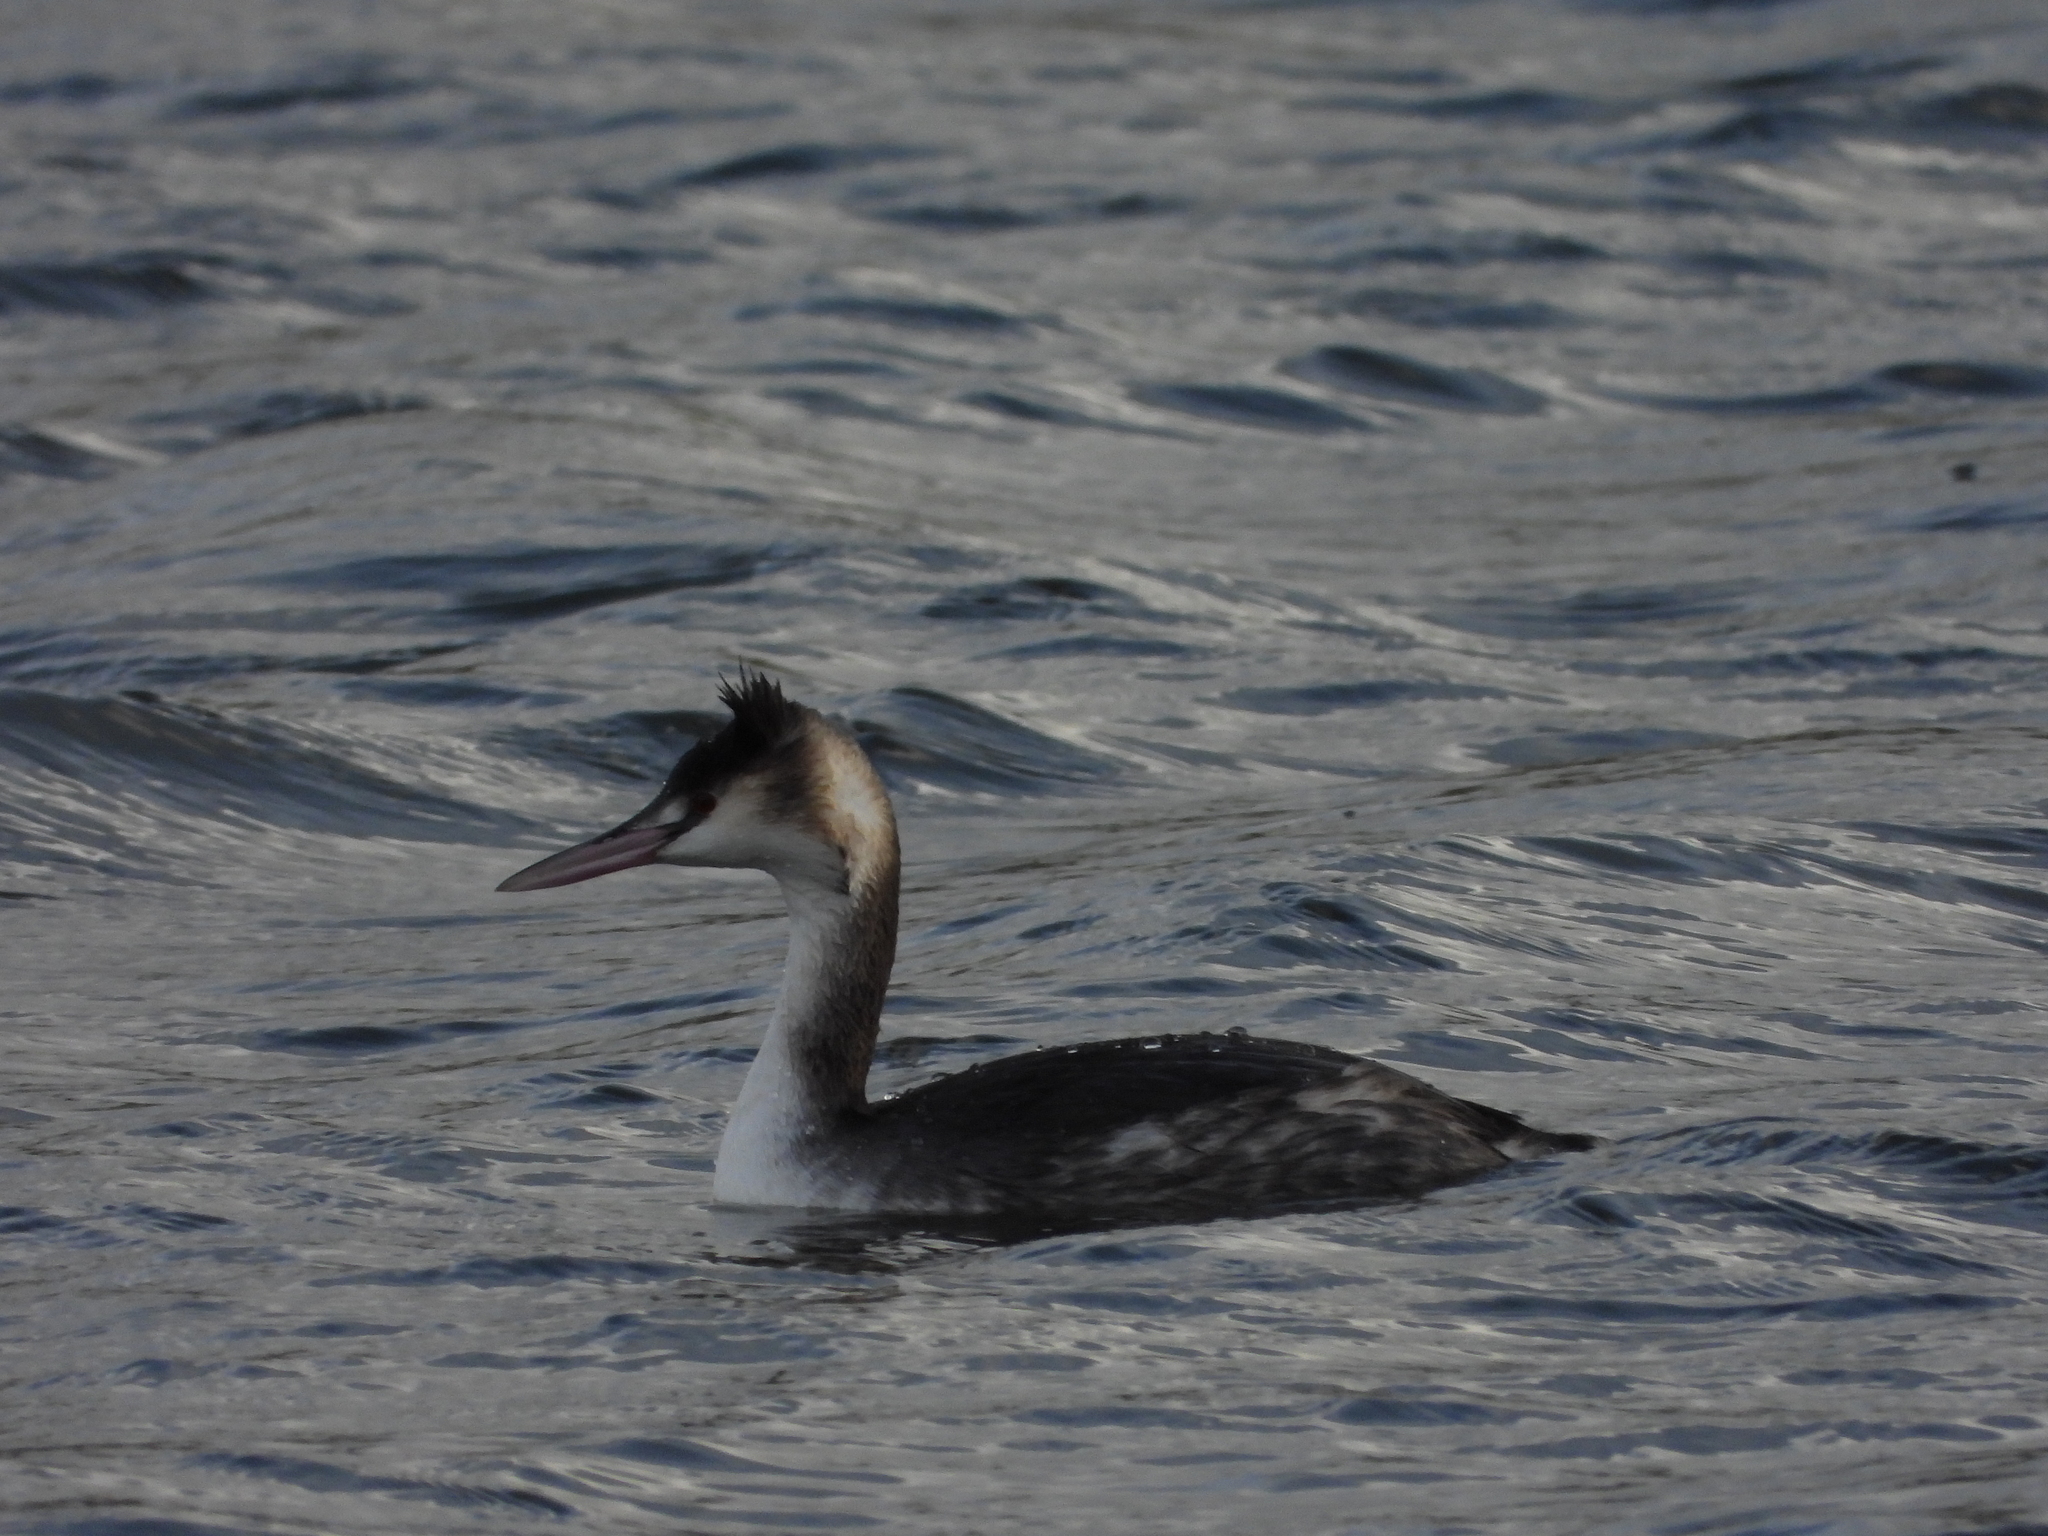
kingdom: Animalia
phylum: Chordata
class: Aves
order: Podicipediformes
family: Podicipedidae
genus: Podiceps
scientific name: Podiceps cristatus
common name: Great crested grebe
